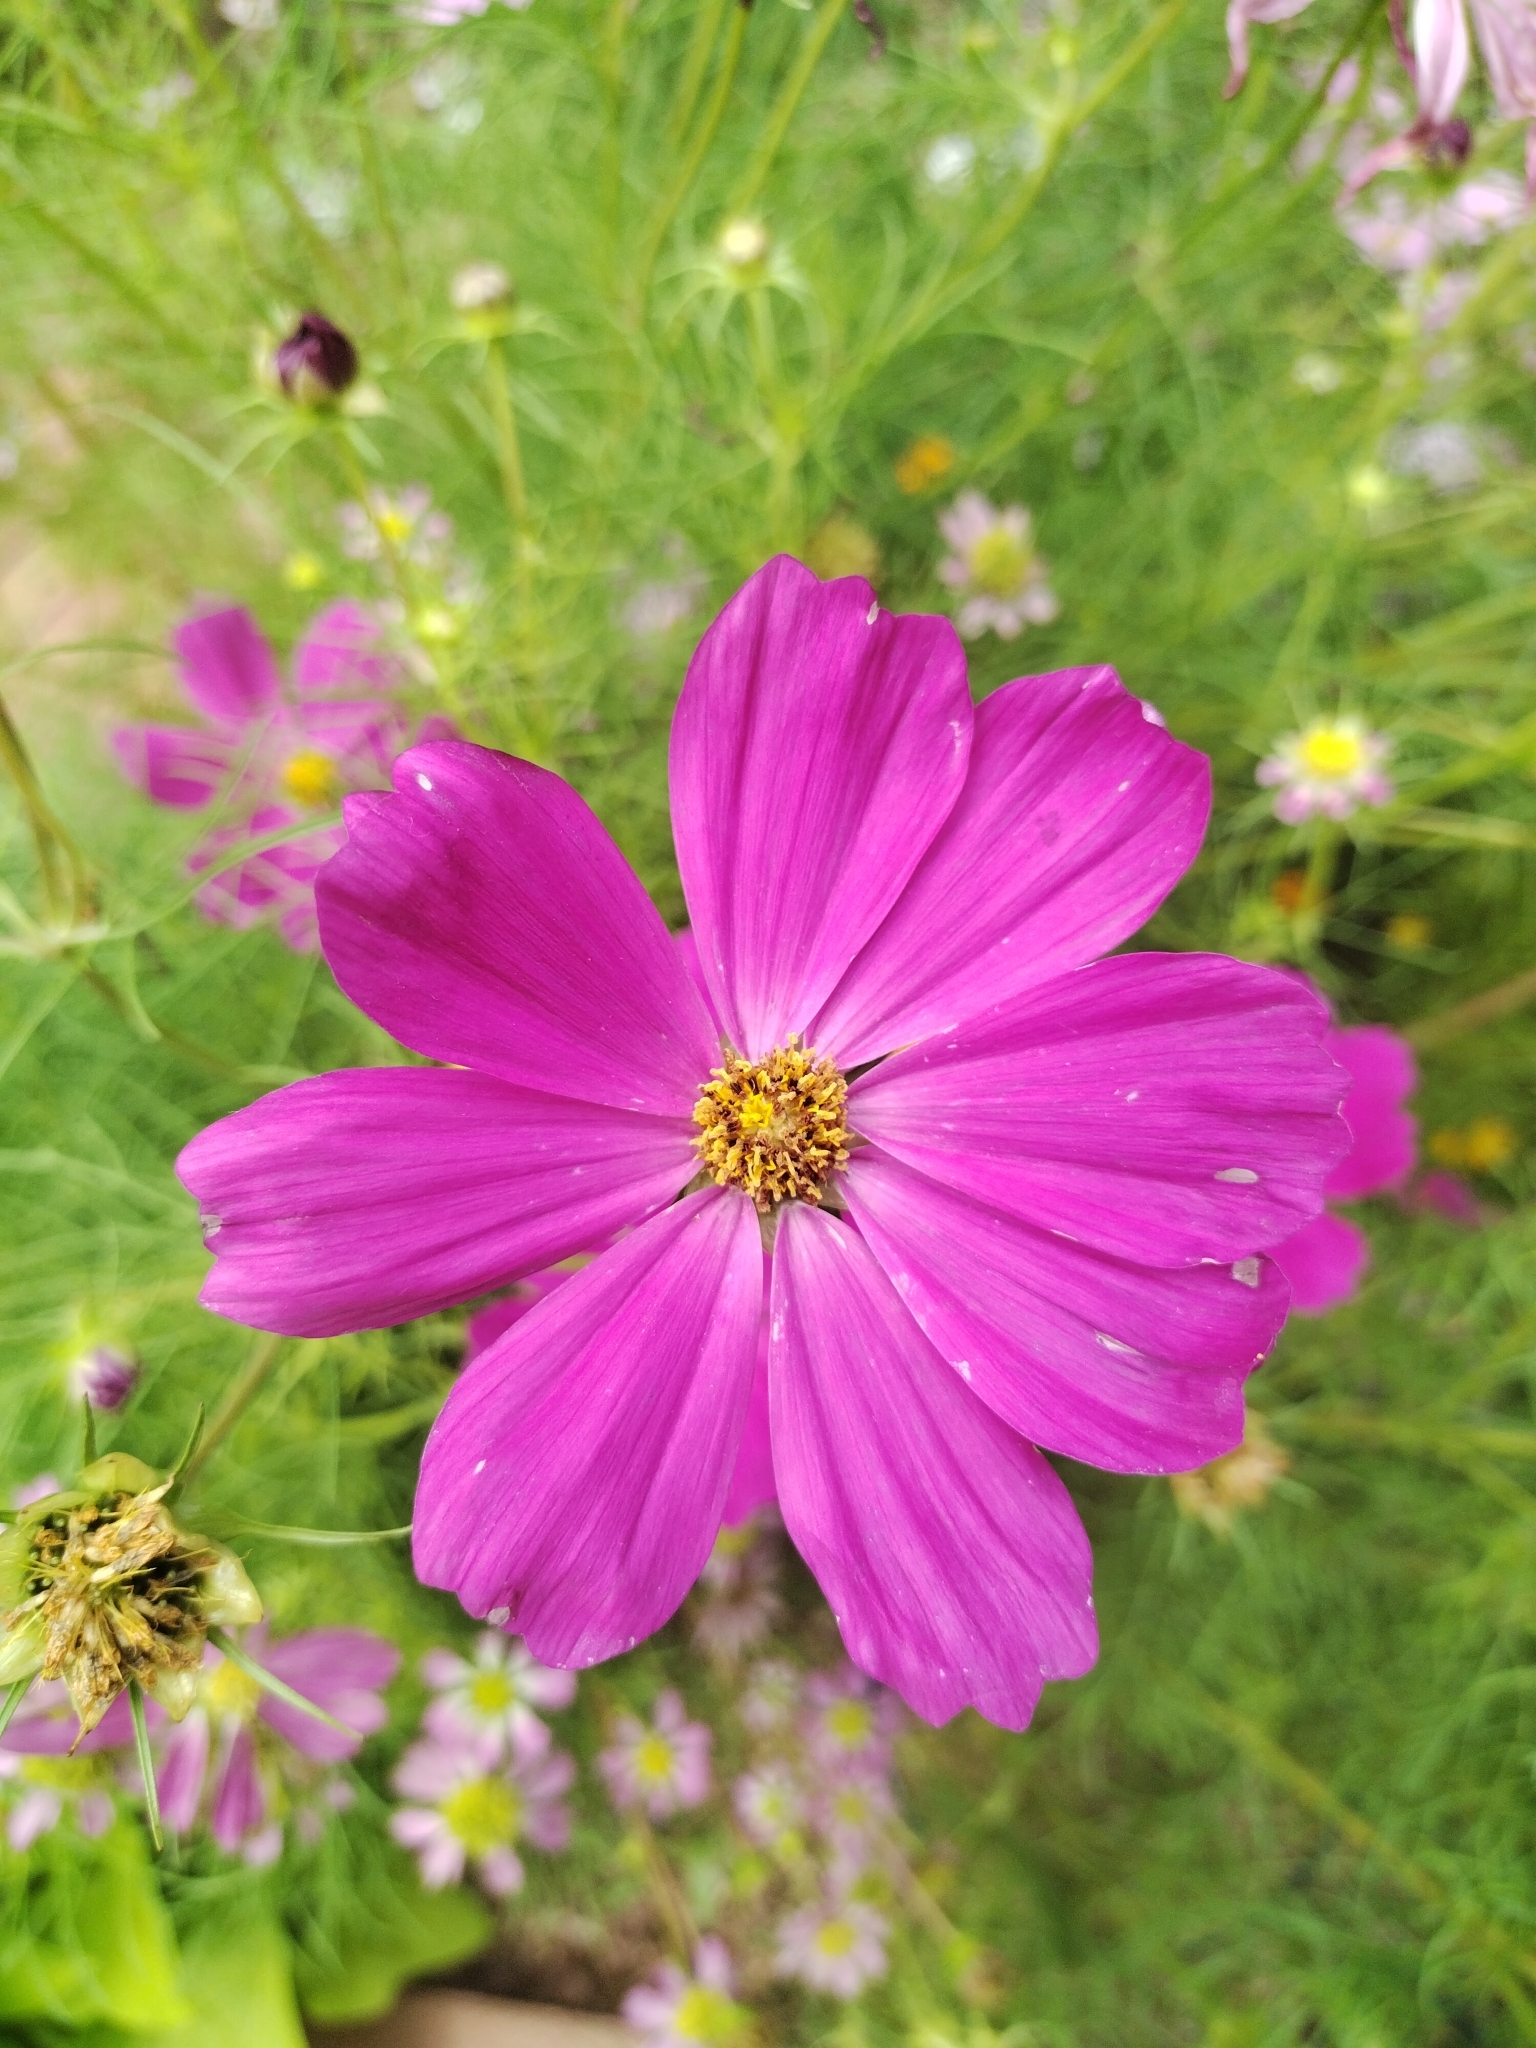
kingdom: Plantae
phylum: Tracheophyta
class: Magnoliopsida
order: Asterales
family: Asteraceae
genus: Cosmos
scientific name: Cosmos bipinnatus
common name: Garden cosmos
